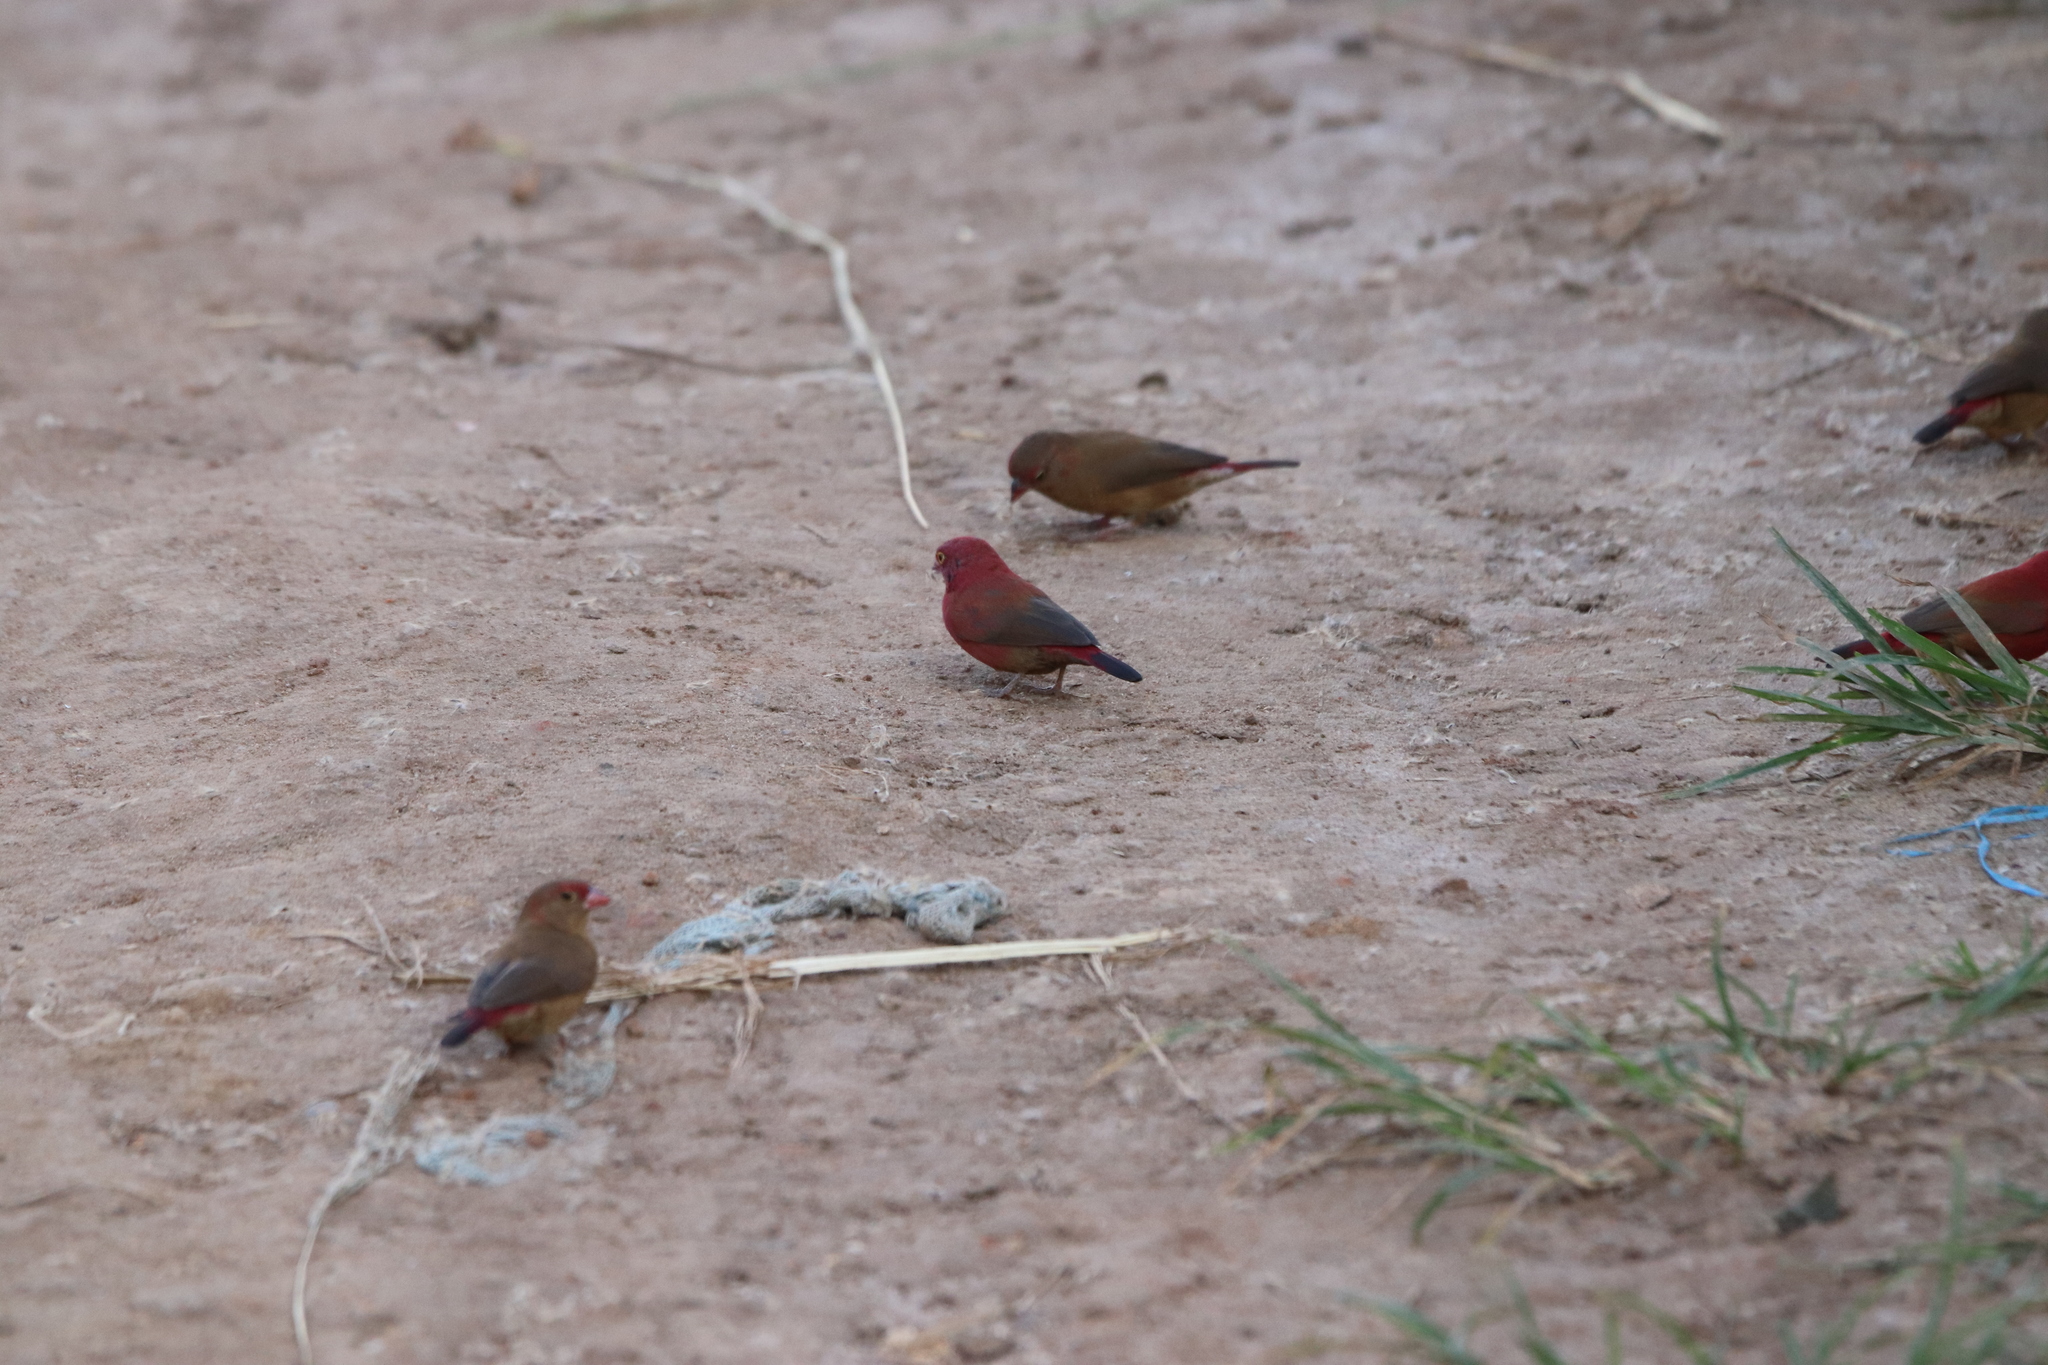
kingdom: Animalia
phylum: Chordata
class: Aves
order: Passeriformes
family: Estrildidae
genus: Lagonosticta
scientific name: Lagonosticta senegala
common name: Red-billed firefinch
